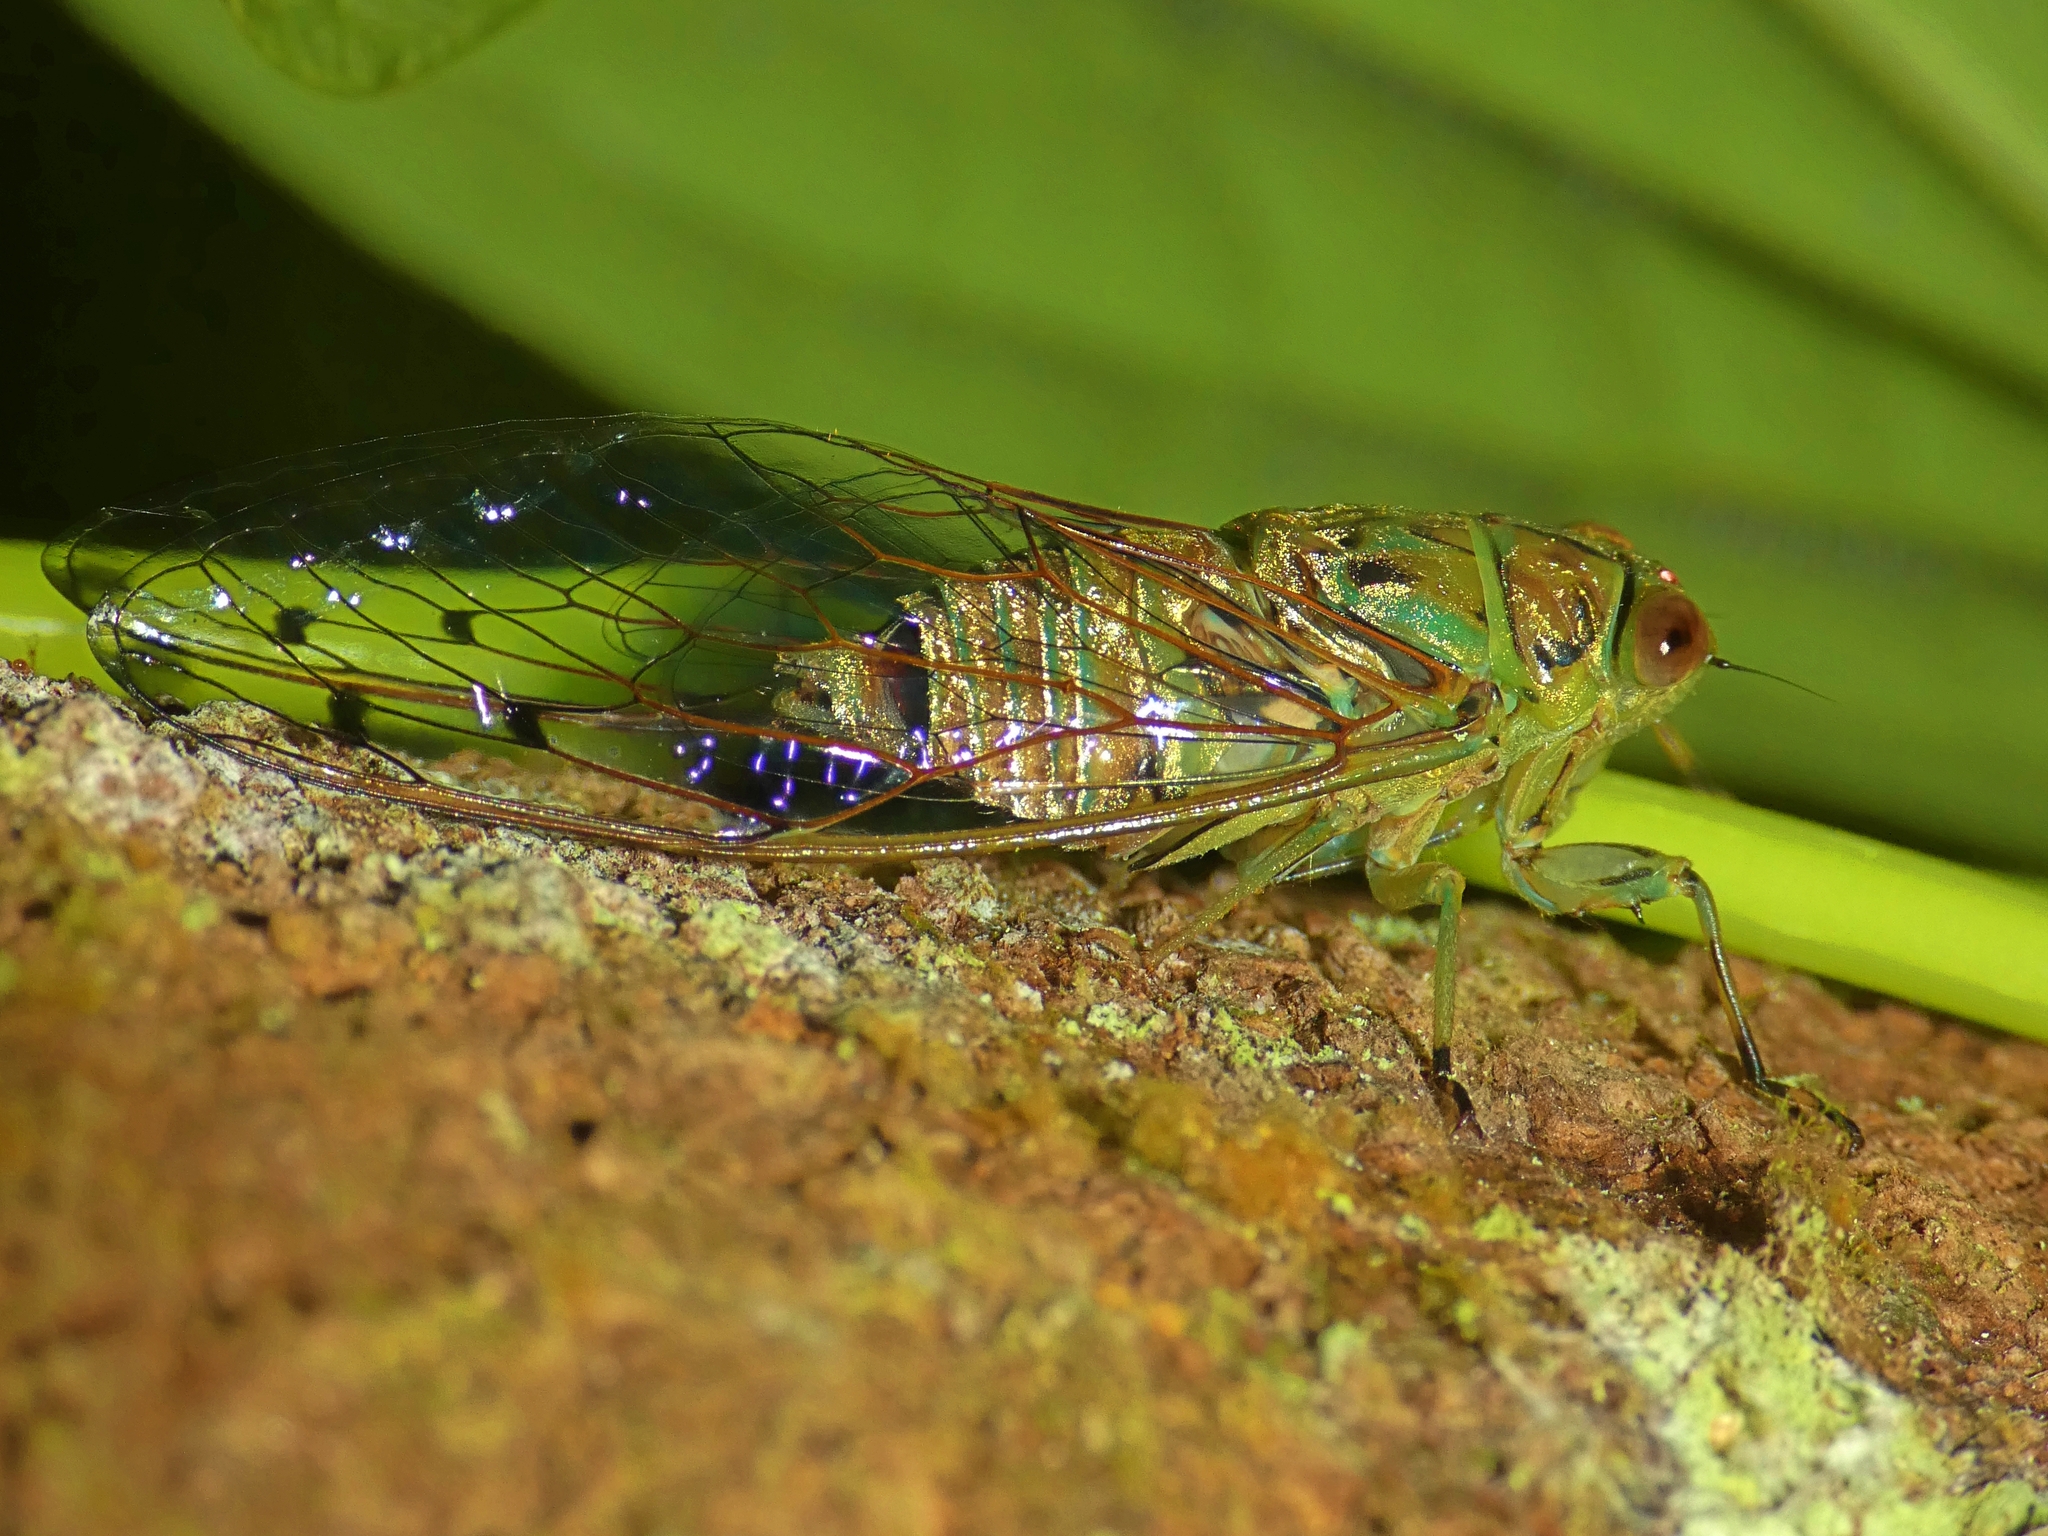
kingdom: Animalia
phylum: Arthropoda
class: Insecta
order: Hemiptera
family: Cicadidae
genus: Tamasa
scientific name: Tamasa tristigma
